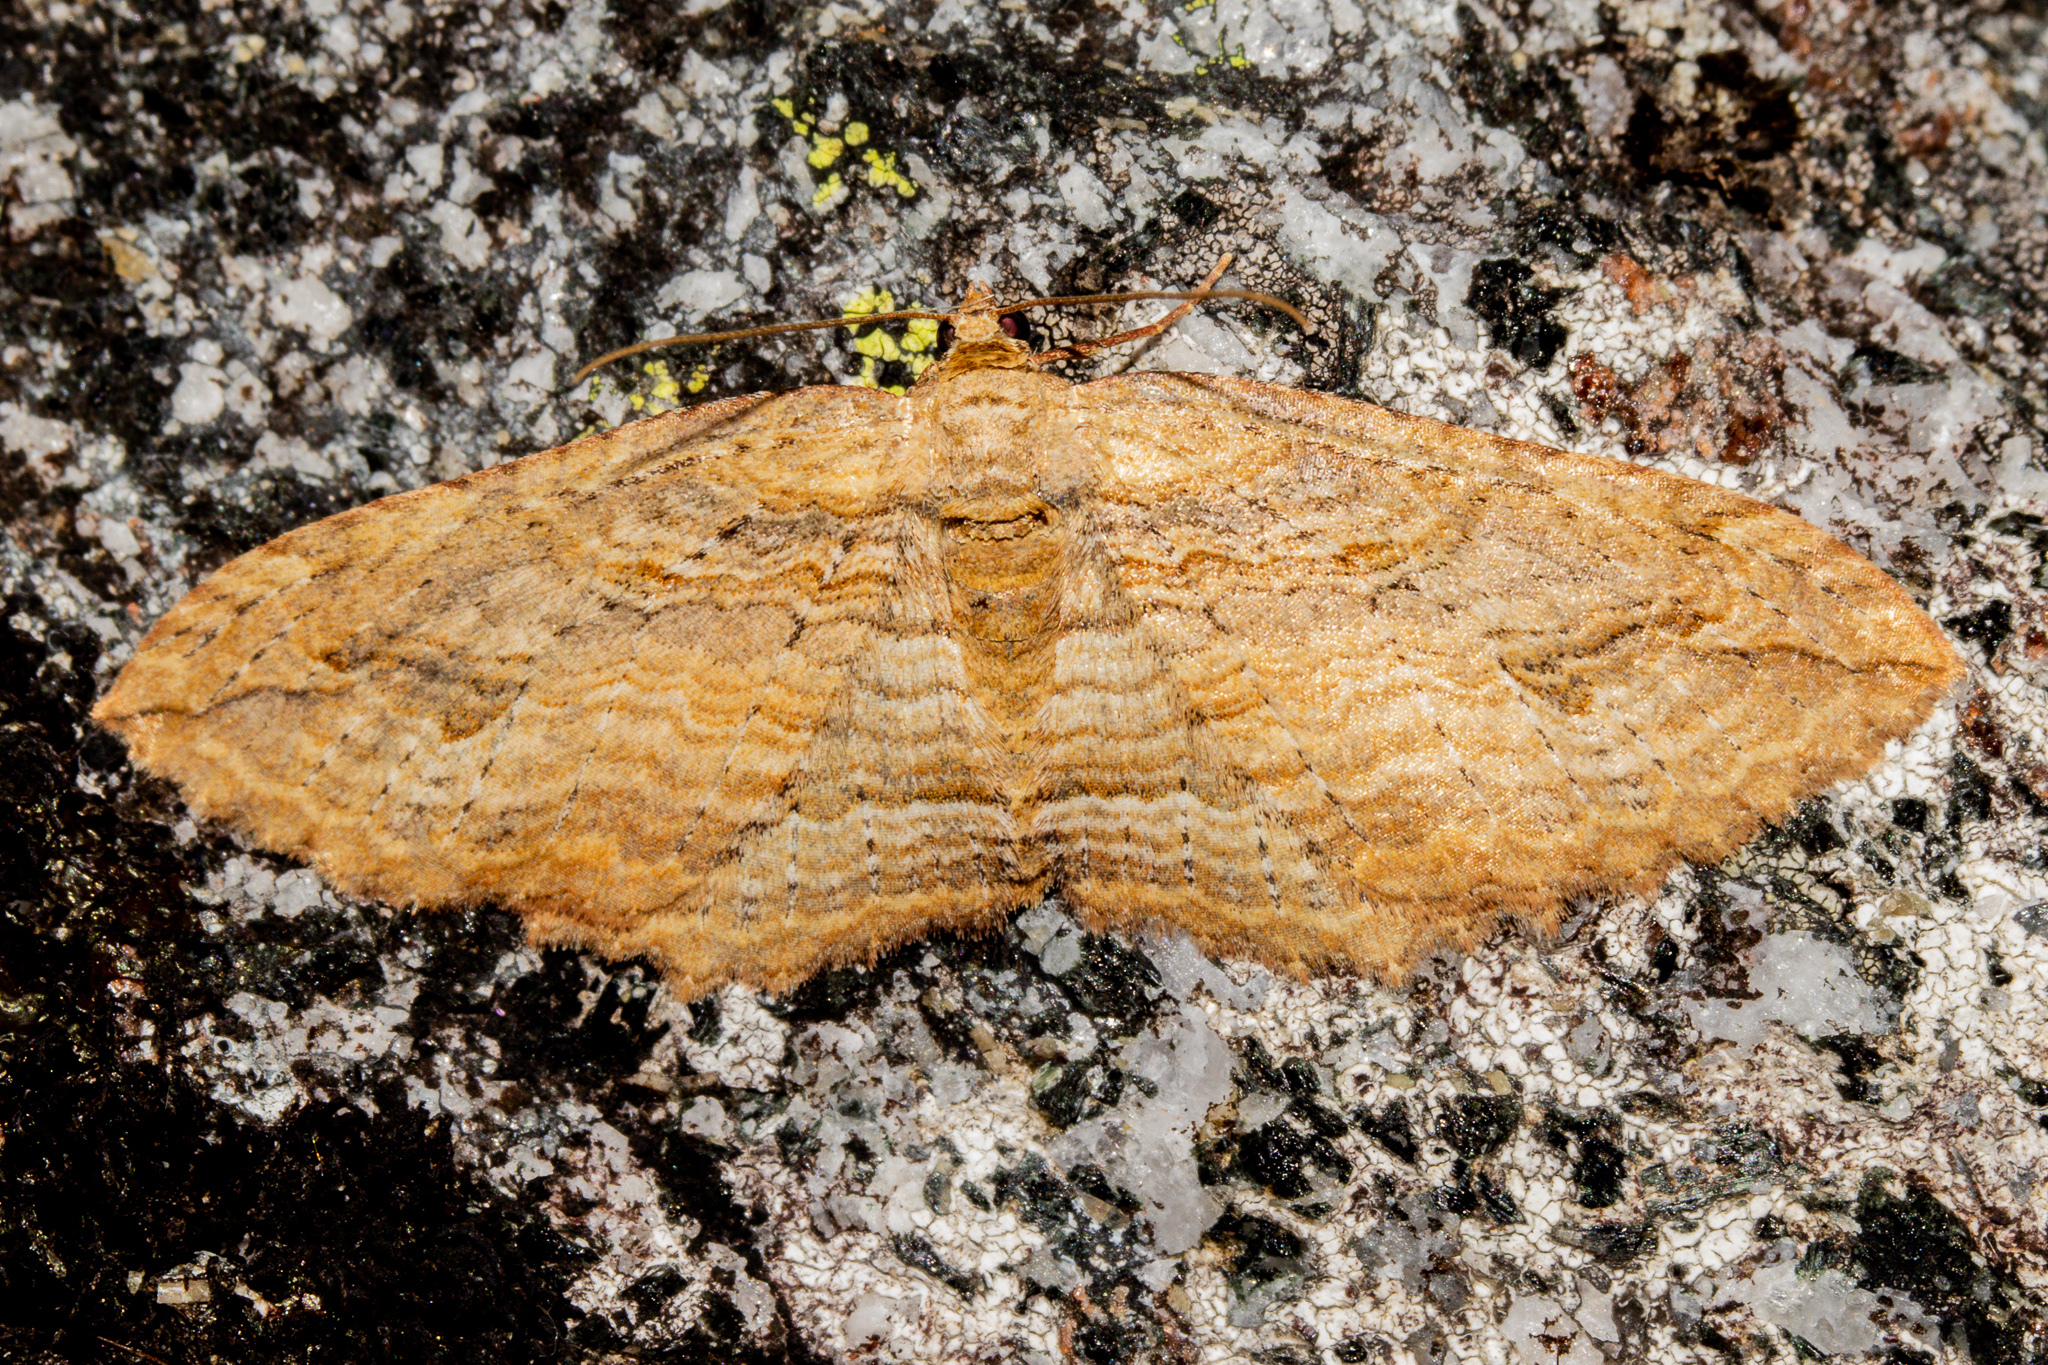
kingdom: Animalia
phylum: Arthropoda
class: Insecta
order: Lepidoptera
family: Geometridae
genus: Austrocidaria
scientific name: Austrocidaria anguligera
